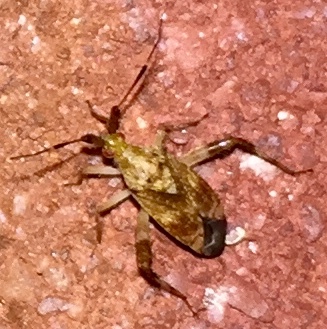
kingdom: Animalia
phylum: Arthropoda
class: Insecta
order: Hemiptera
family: Miridae
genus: Neurocolpus
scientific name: Neurocolpus nubilus
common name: Clouded plant bug
